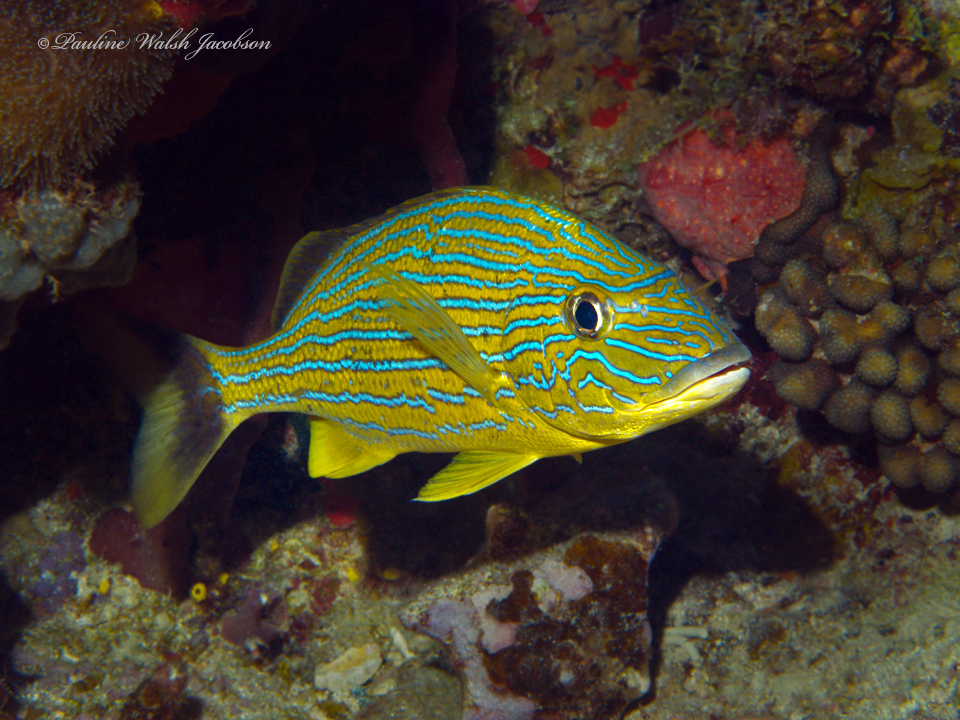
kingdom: Animalia
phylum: Chordata
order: Perciformes
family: Haemulidae
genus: Haemulon
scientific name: Haemulon sciurus
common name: Bluestriped grunt
